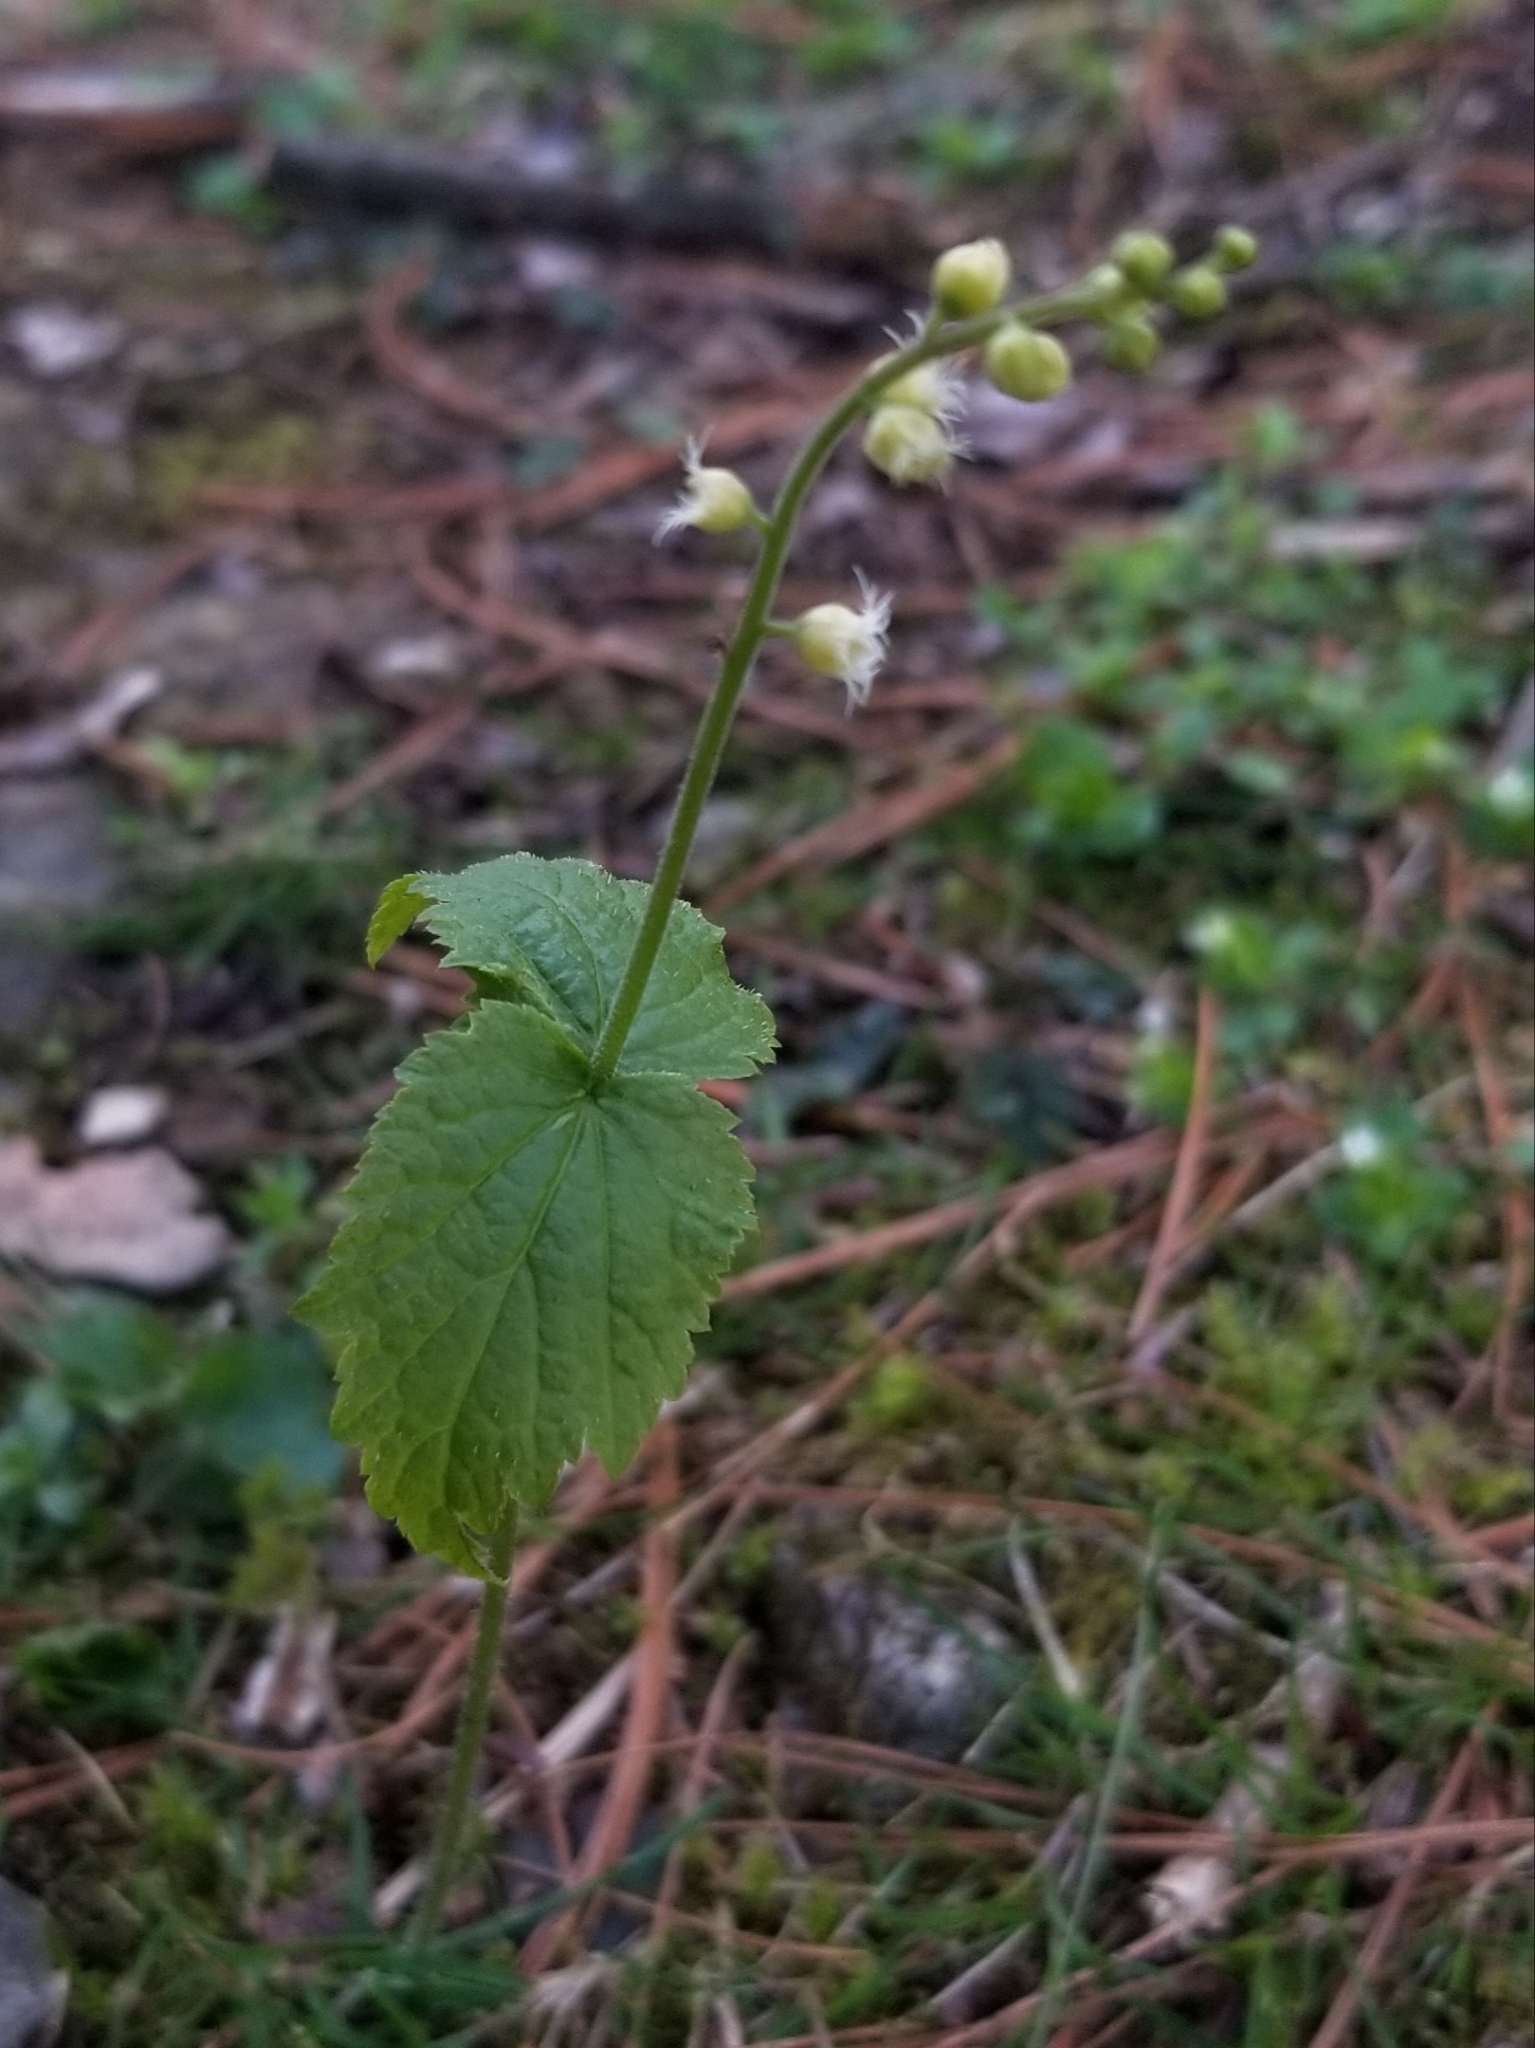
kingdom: Plantae
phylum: Tracheophyta
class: Magnoliopsida
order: Saxifragales
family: Saxifragaceae
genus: Mitella
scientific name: Mitella diphylla
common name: Coolwort
